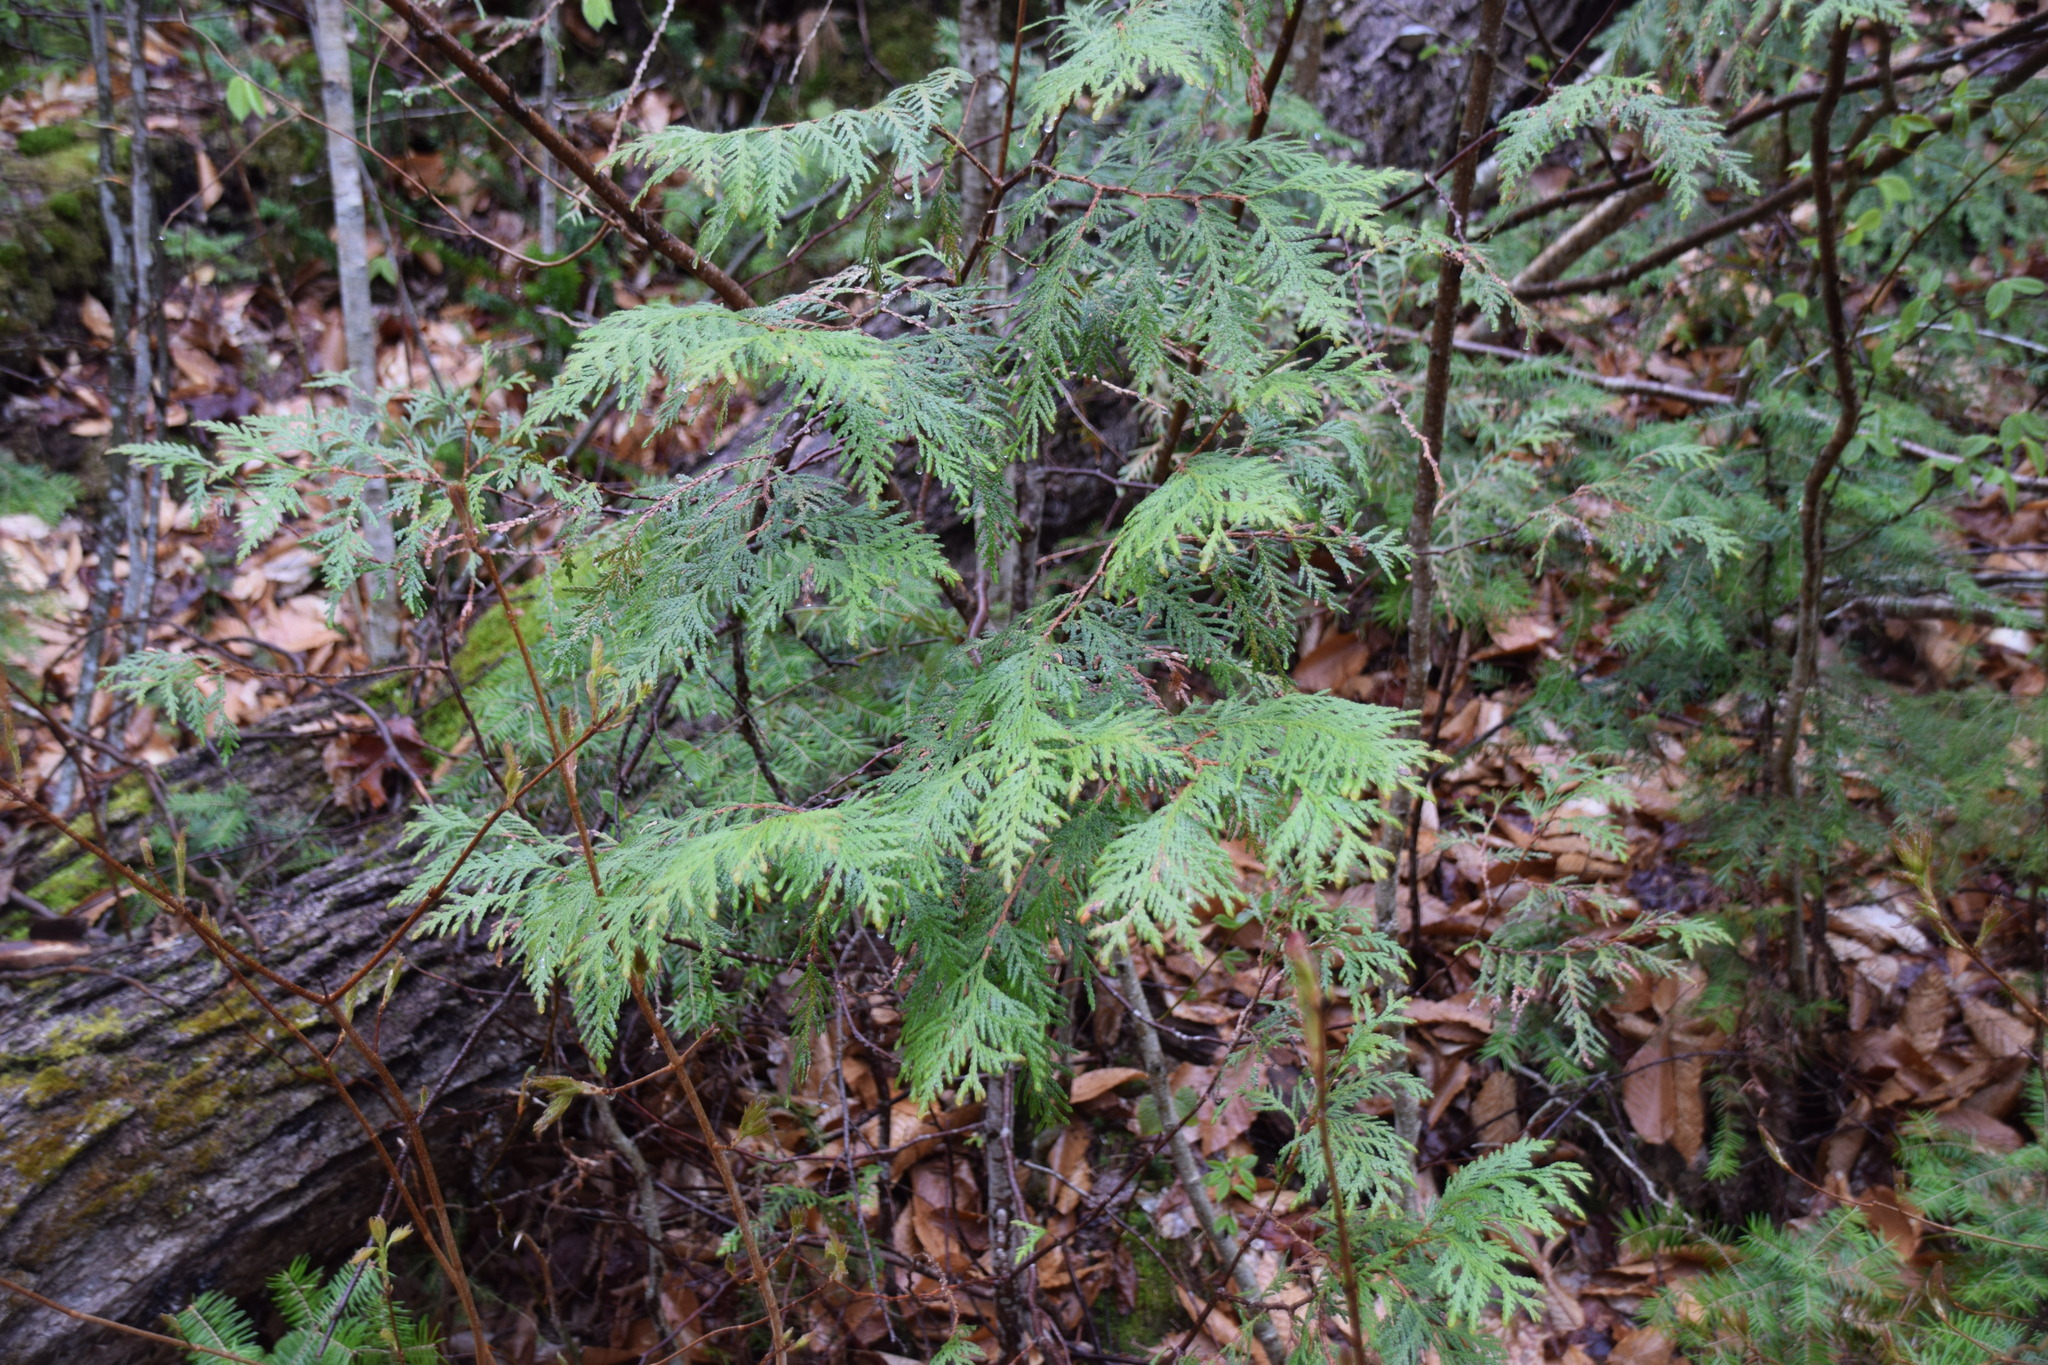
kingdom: Plantae
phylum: Tracheophyta
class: Pinopsida
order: Pinales
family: Cupressaceae
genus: Thuja
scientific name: Thuja occidentalis
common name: Northern white-cedar
